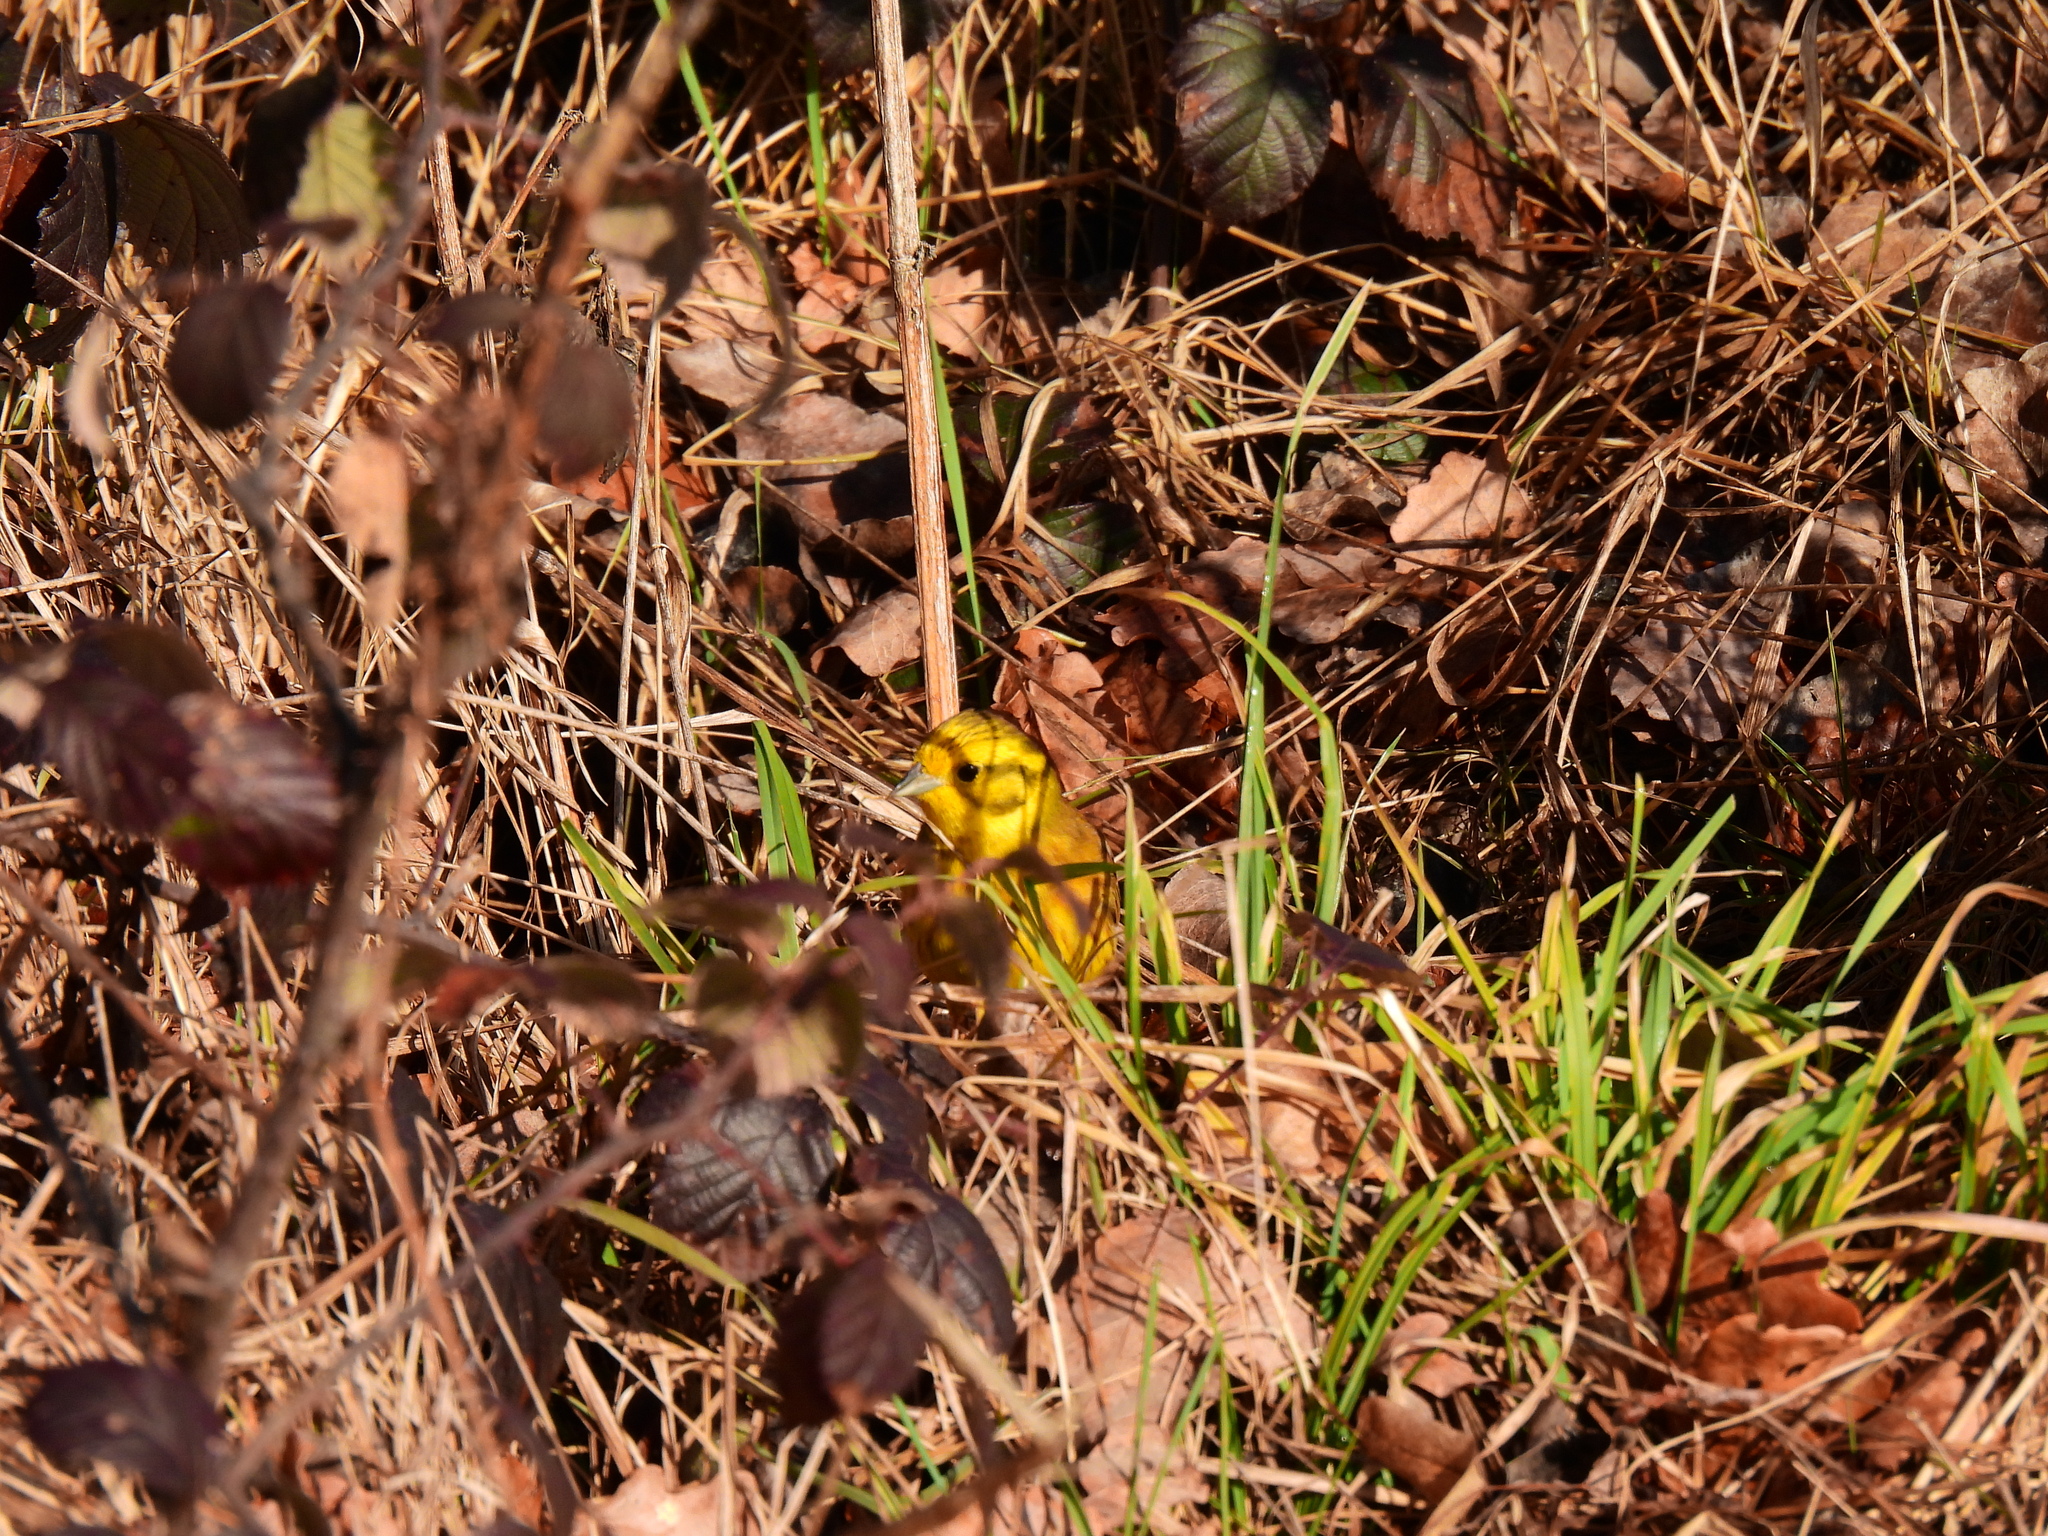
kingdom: Animalia
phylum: Chordata
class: Aves
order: Passeriformes
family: Emberizidae
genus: Emberiza
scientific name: Emberiza citrinella
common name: Yellowhammer
